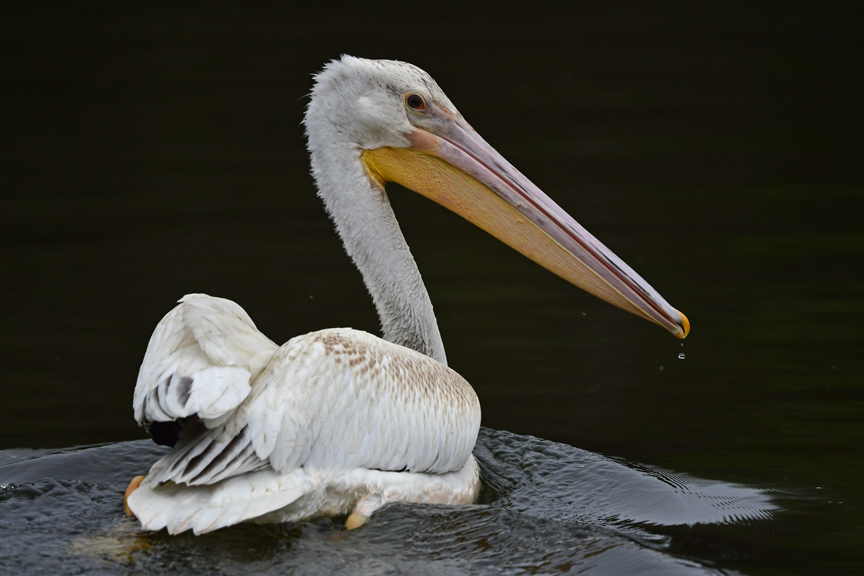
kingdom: Animalia
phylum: Chordata
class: Aves
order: Pelecaniformes
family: Pelecanidae
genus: Pelecanus
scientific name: Pelecanus erythrorhynchos
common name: American white pelican
